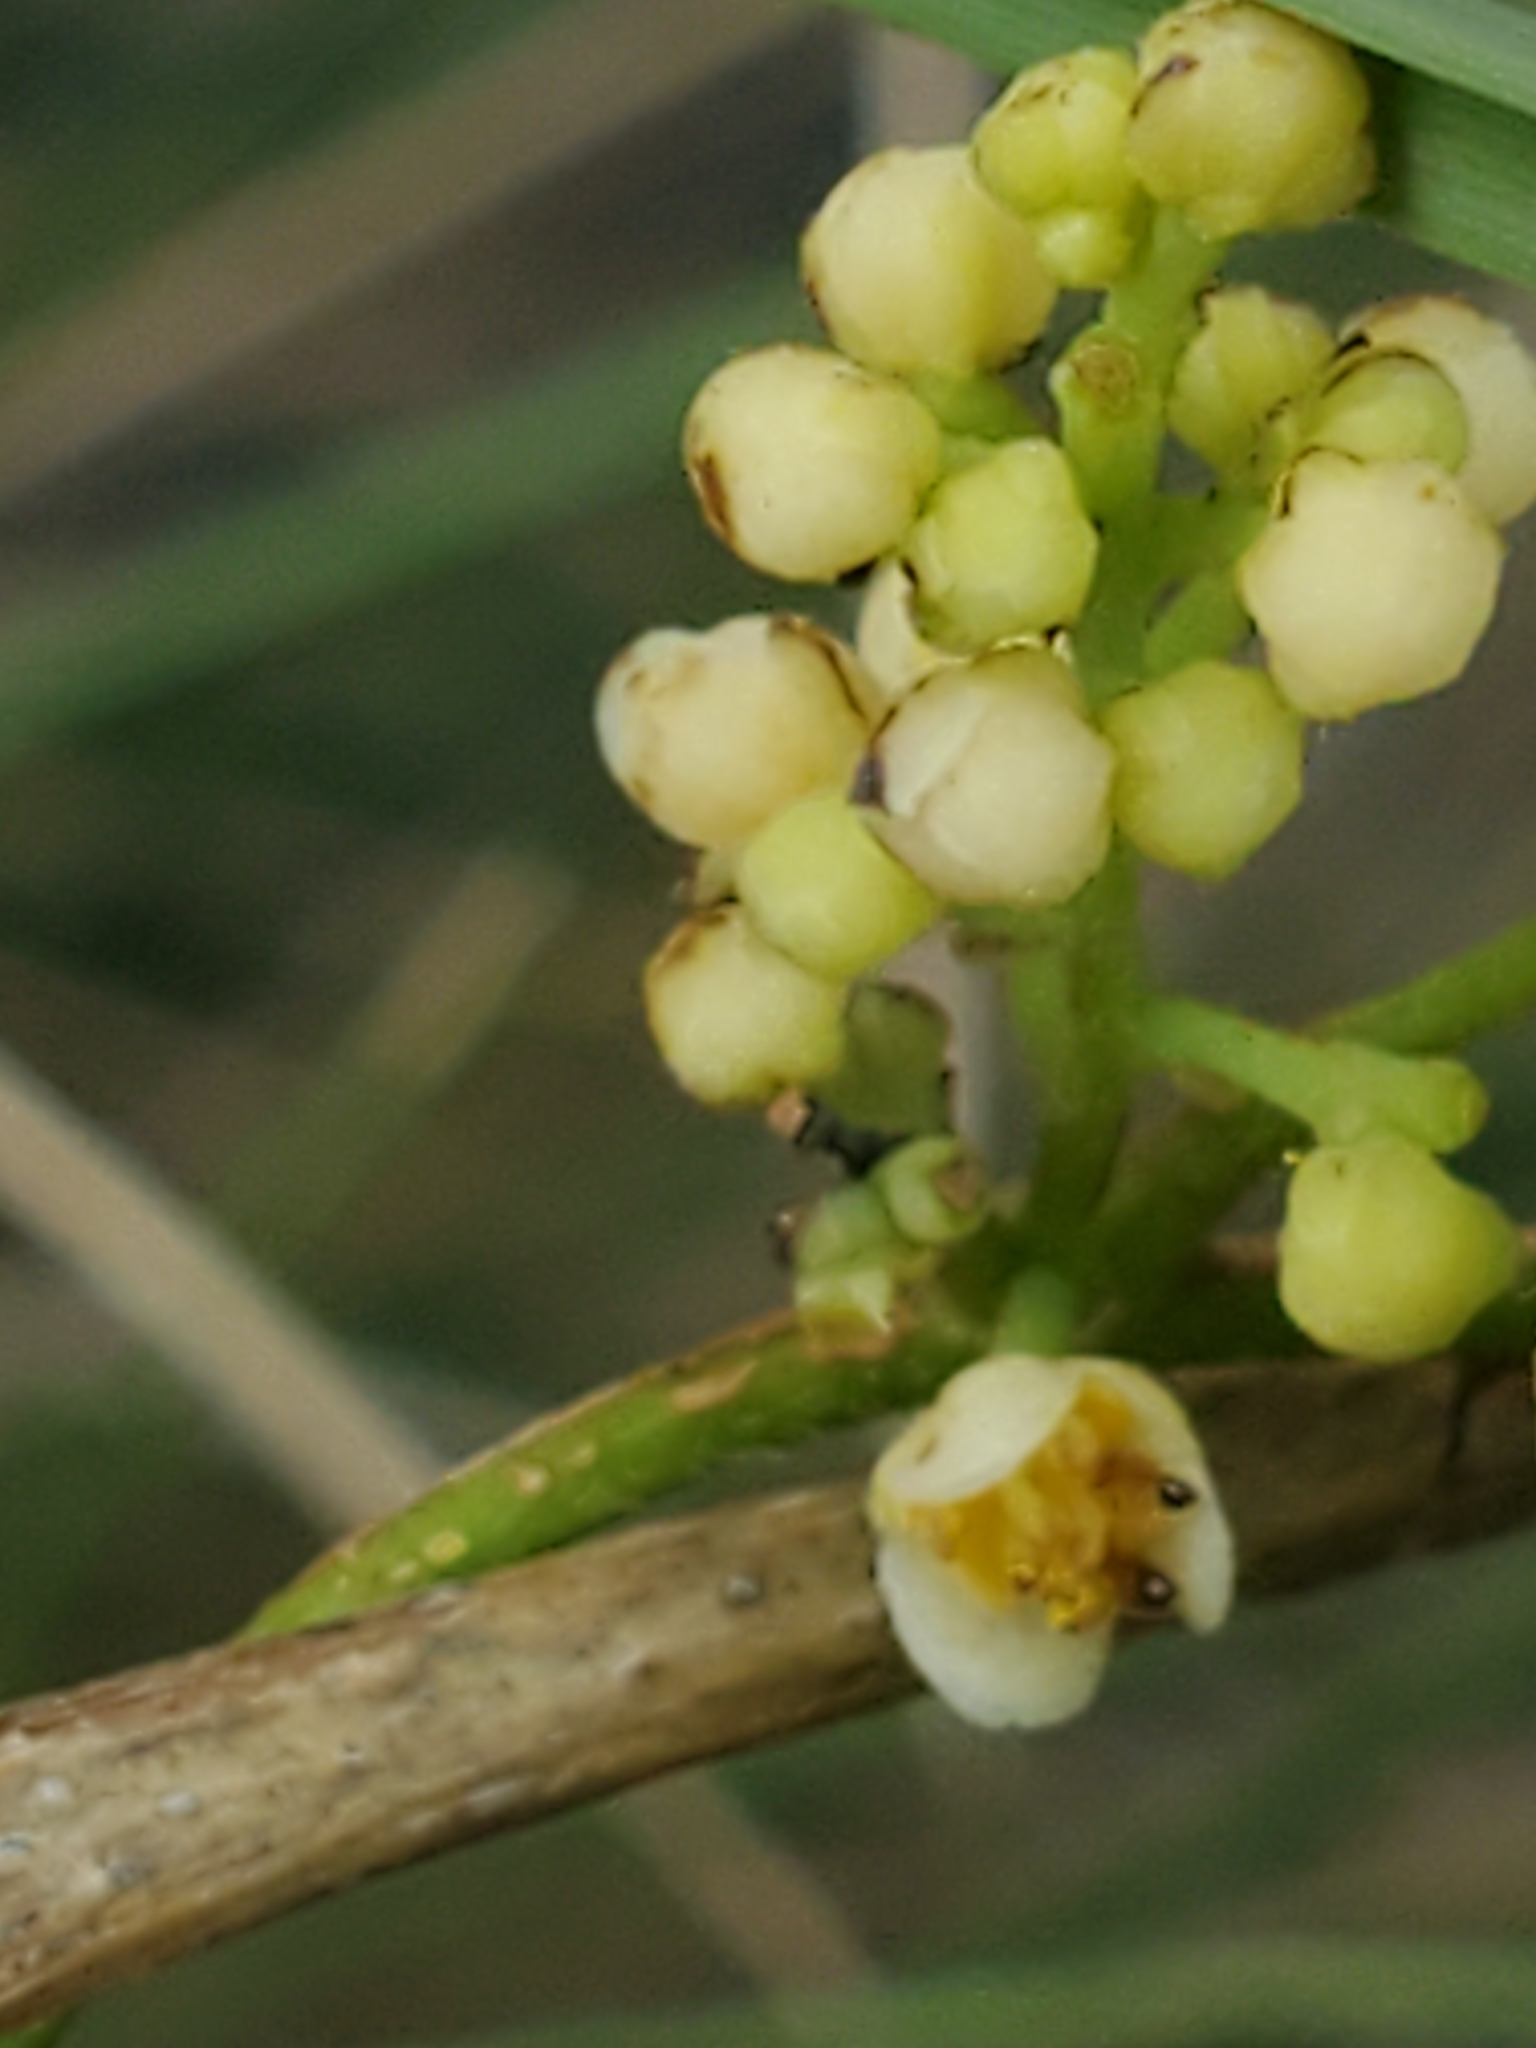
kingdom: Plantae
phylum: Tracheophyta
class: Magnoliopsida
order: Ranunculales
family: Menispermaceae
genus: Cocculus
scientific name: Cocculus carolinus
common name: Carolina moonseed
